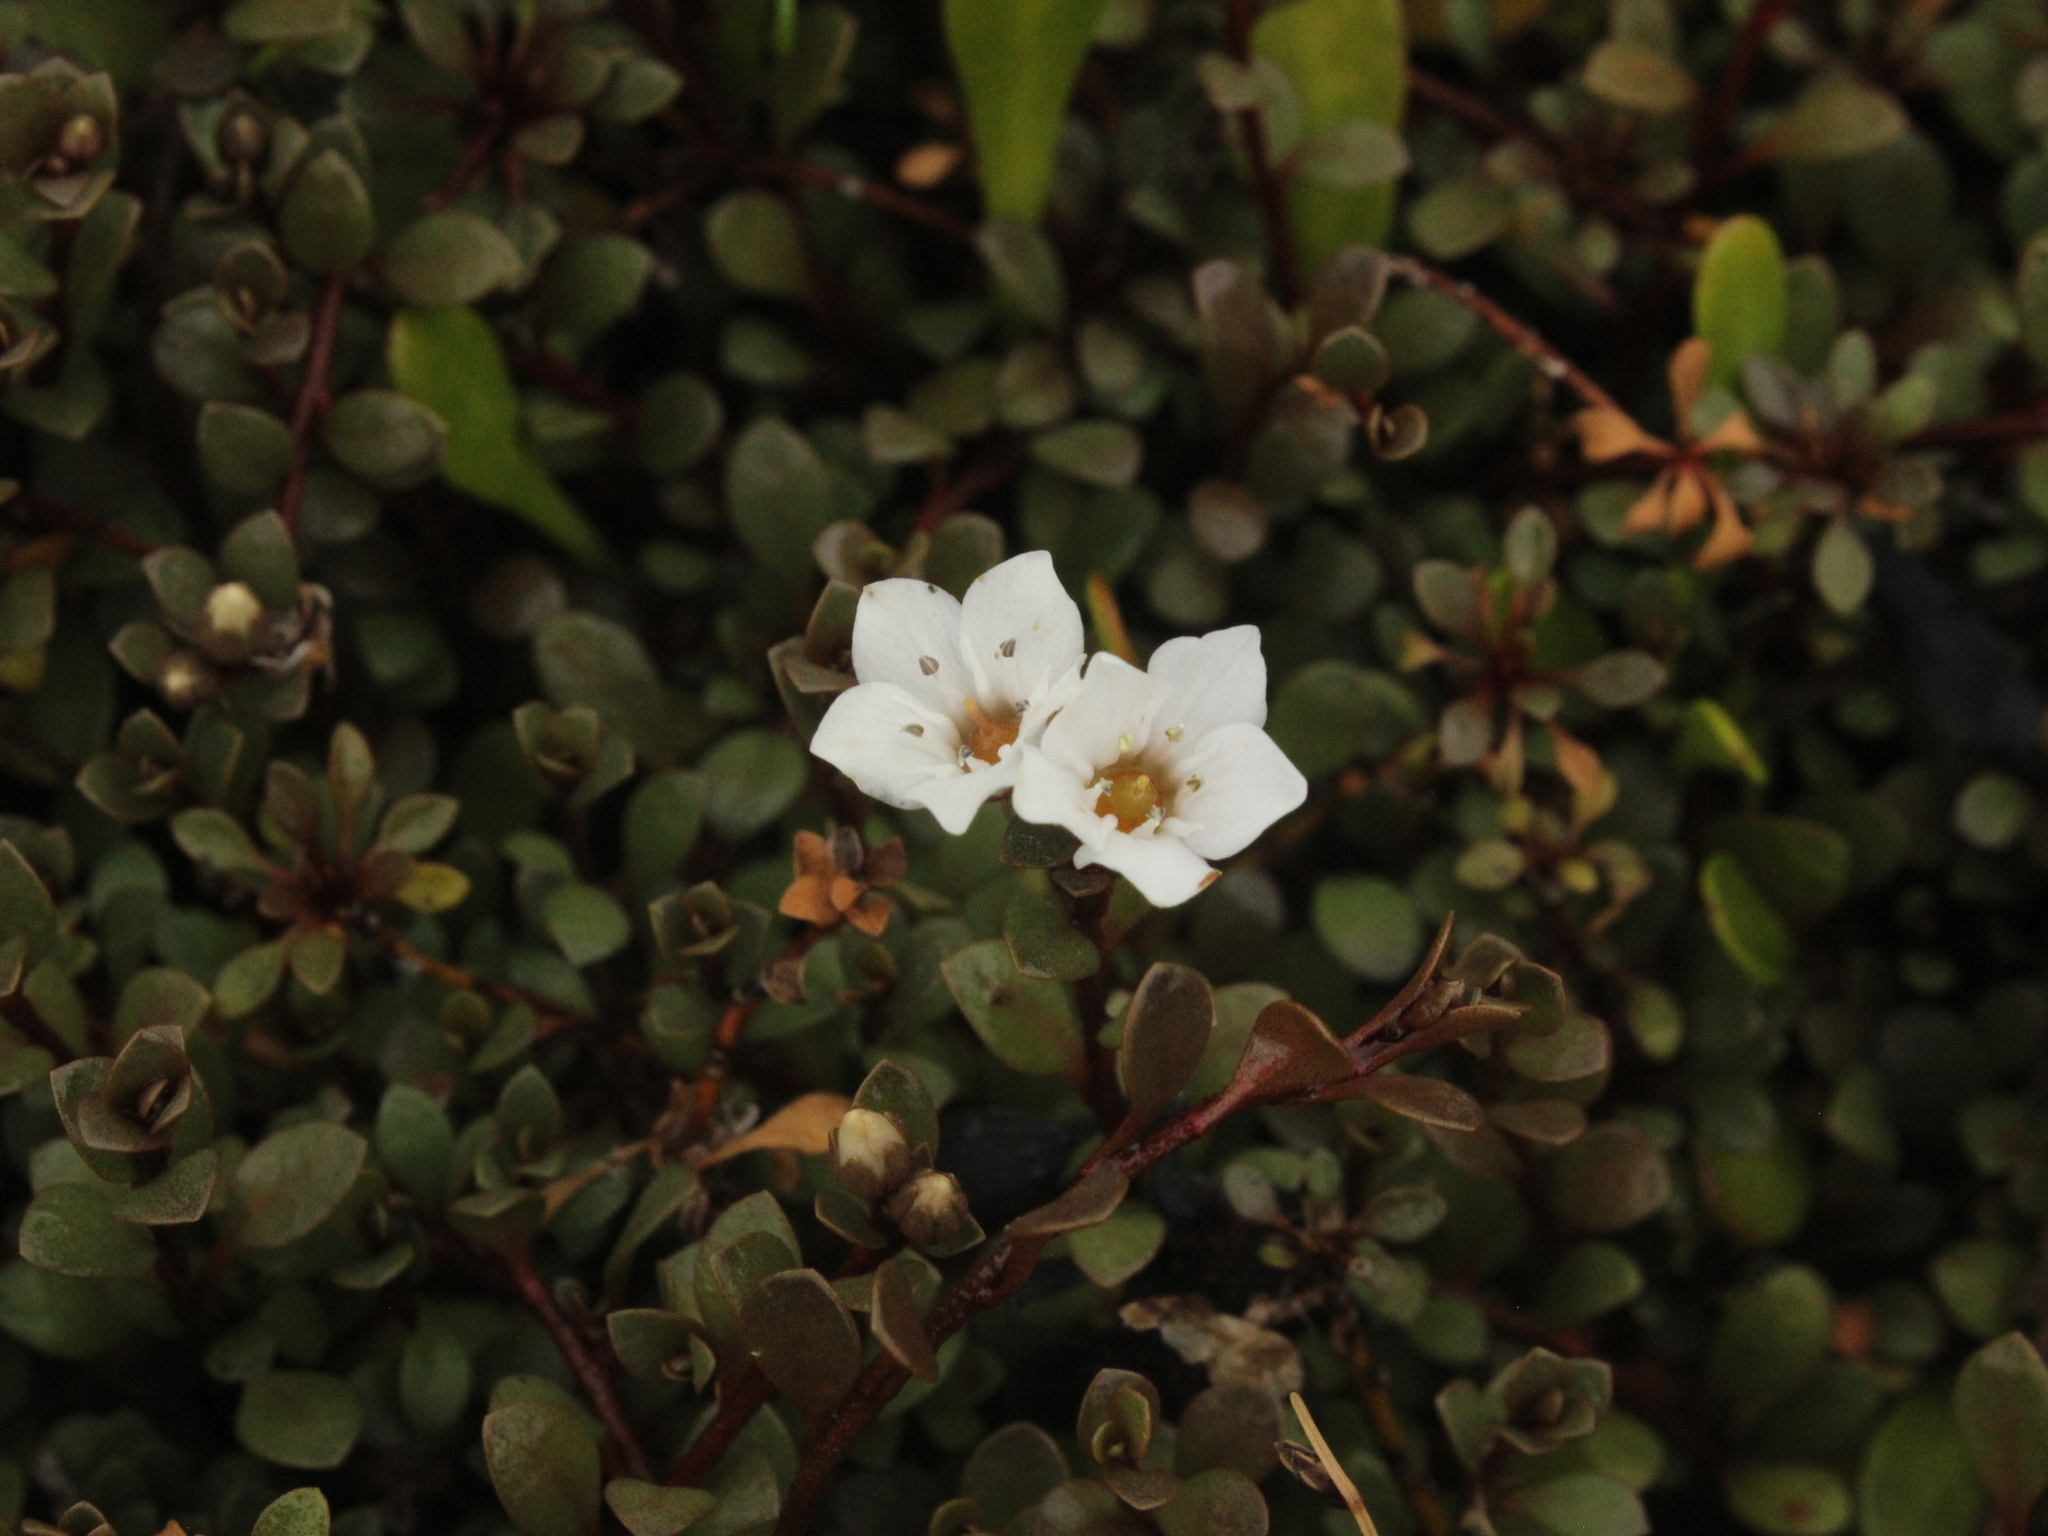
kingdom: Plantae
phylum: Tracheophyta
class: Magnoliopsida
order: Ericales
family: Primulaceae
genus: Samolus
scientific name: Samolus repens
